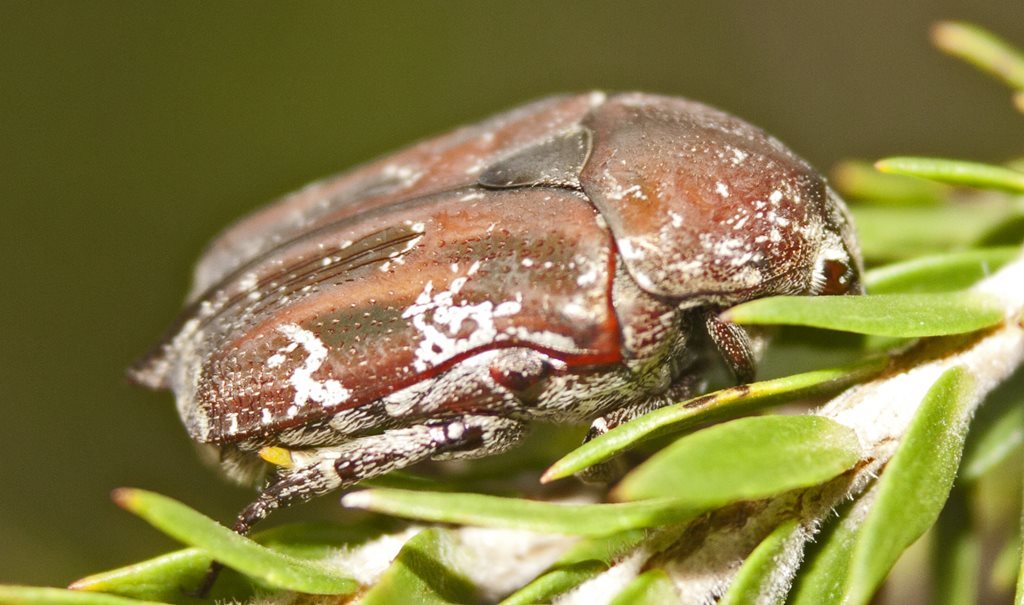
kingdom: Animalia
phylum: Arthropoda
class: Insecta
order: Coleoptera
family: Scarabaeidae
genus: Protaetia
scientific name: Protaetia fusca
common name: Mango flower beetle
